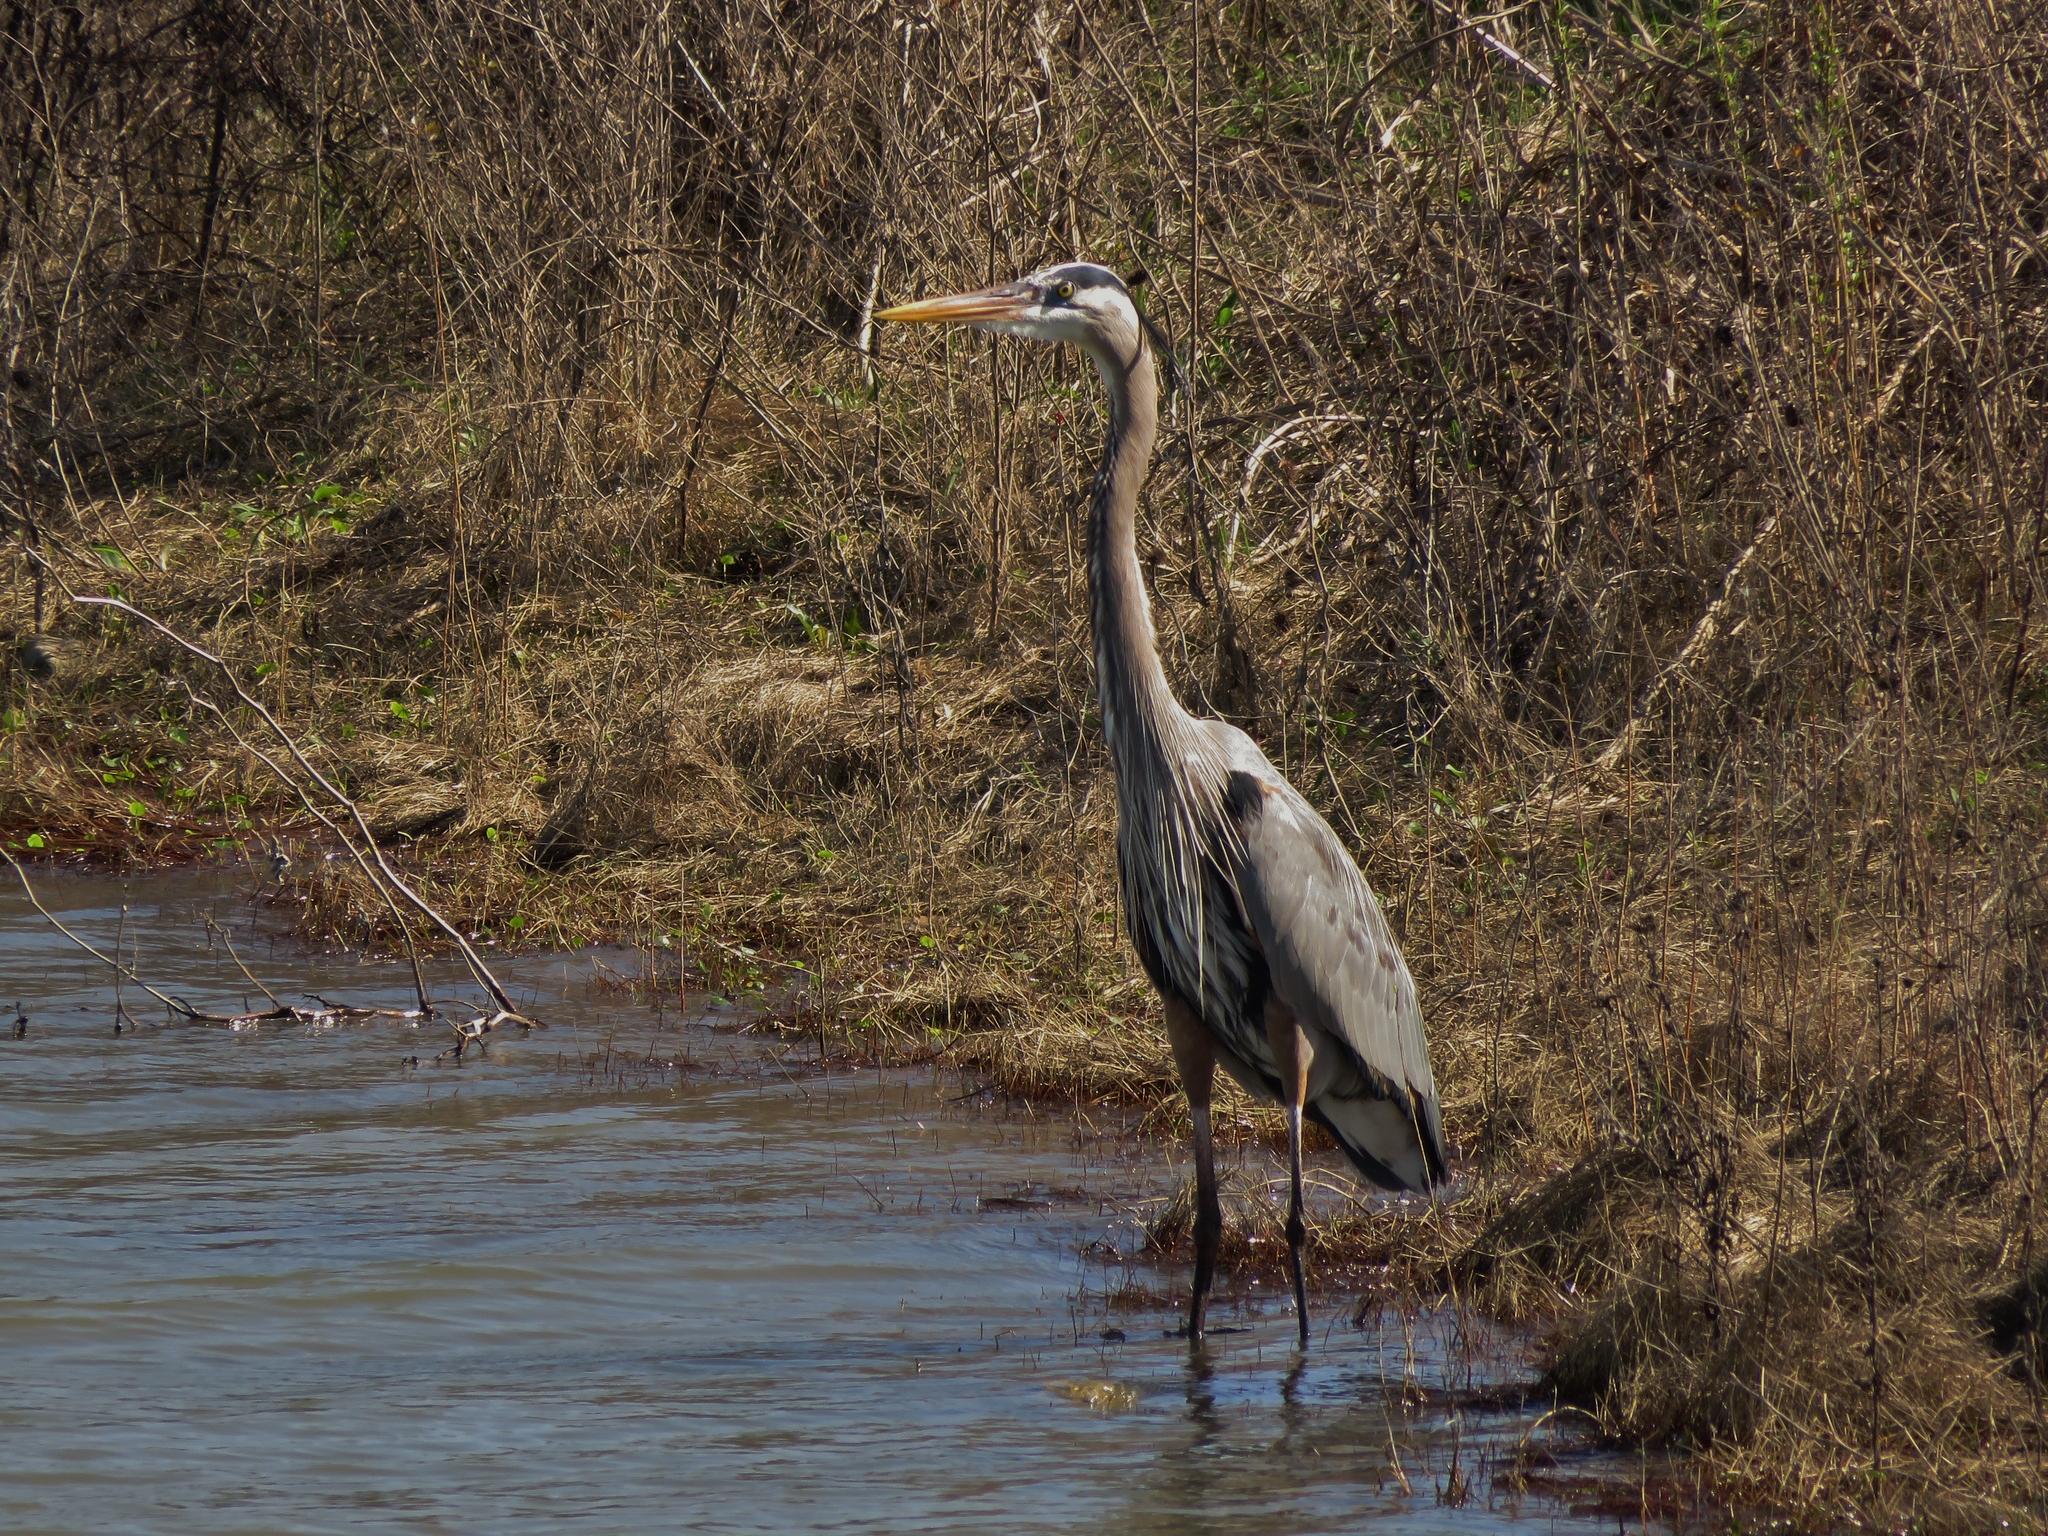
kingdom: Animalia
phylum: Chordata
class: Aves
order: Pelecaniformes
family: Ardeidae
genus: Ardea
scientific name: Ardea herodias
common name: Great blue heron
